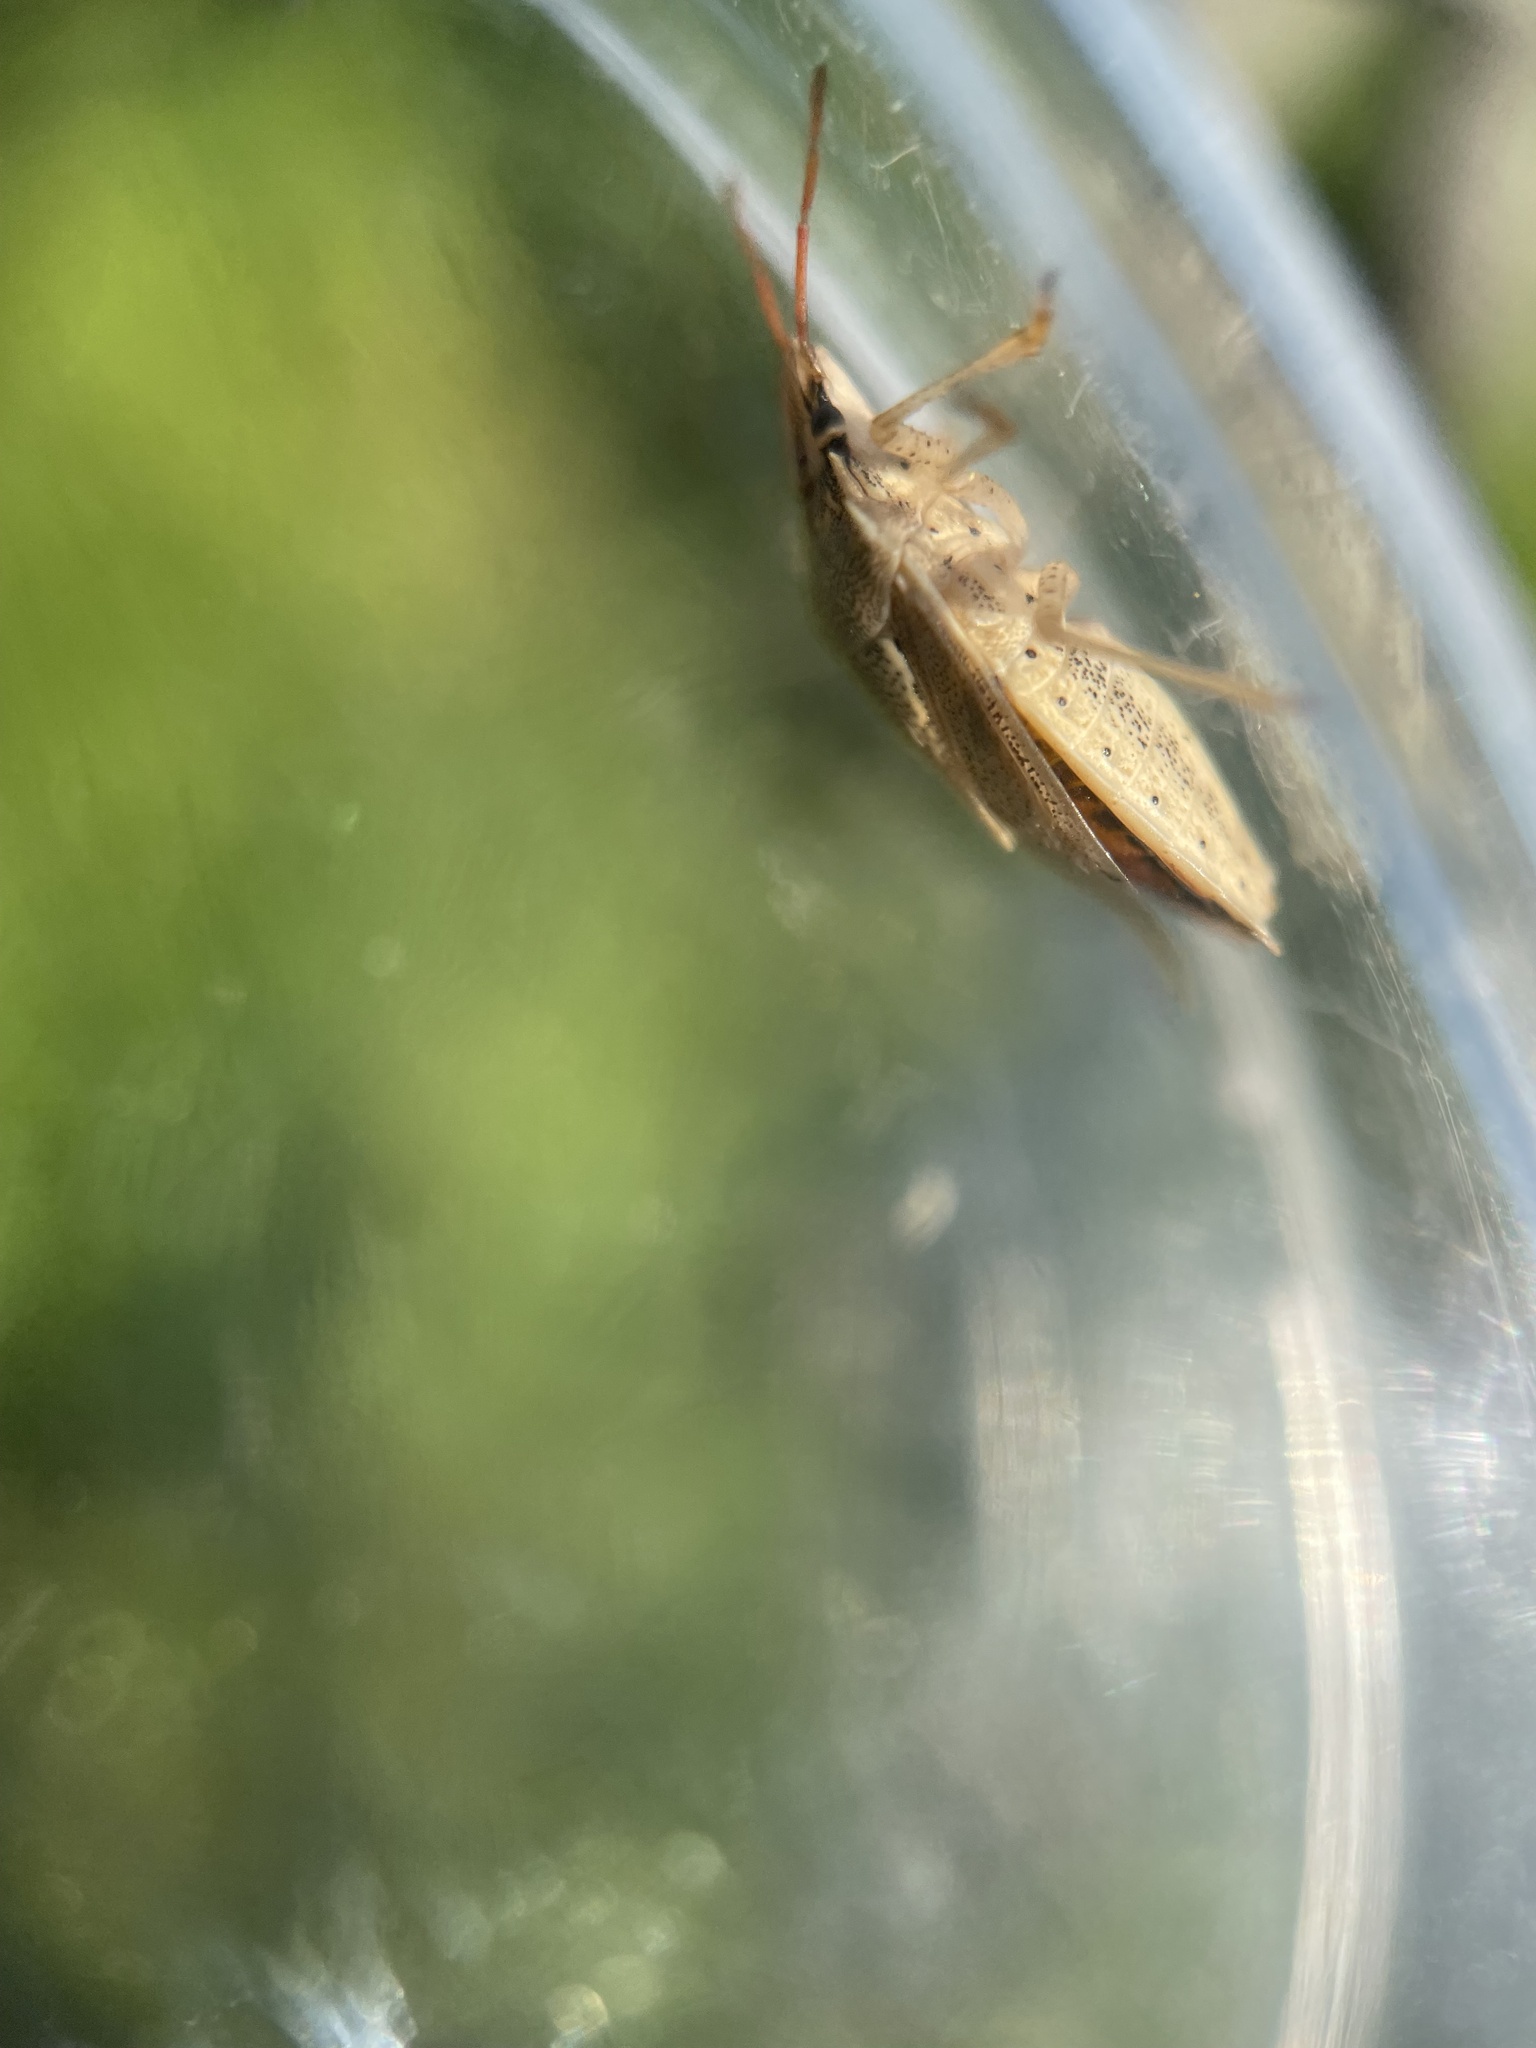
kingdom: Animalia
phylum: Arthropoda
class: Insecta
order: Hemiptera
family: Pentatomidae
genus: Oebalus
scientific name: Oebalus pugnax
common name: Rice stink bug
